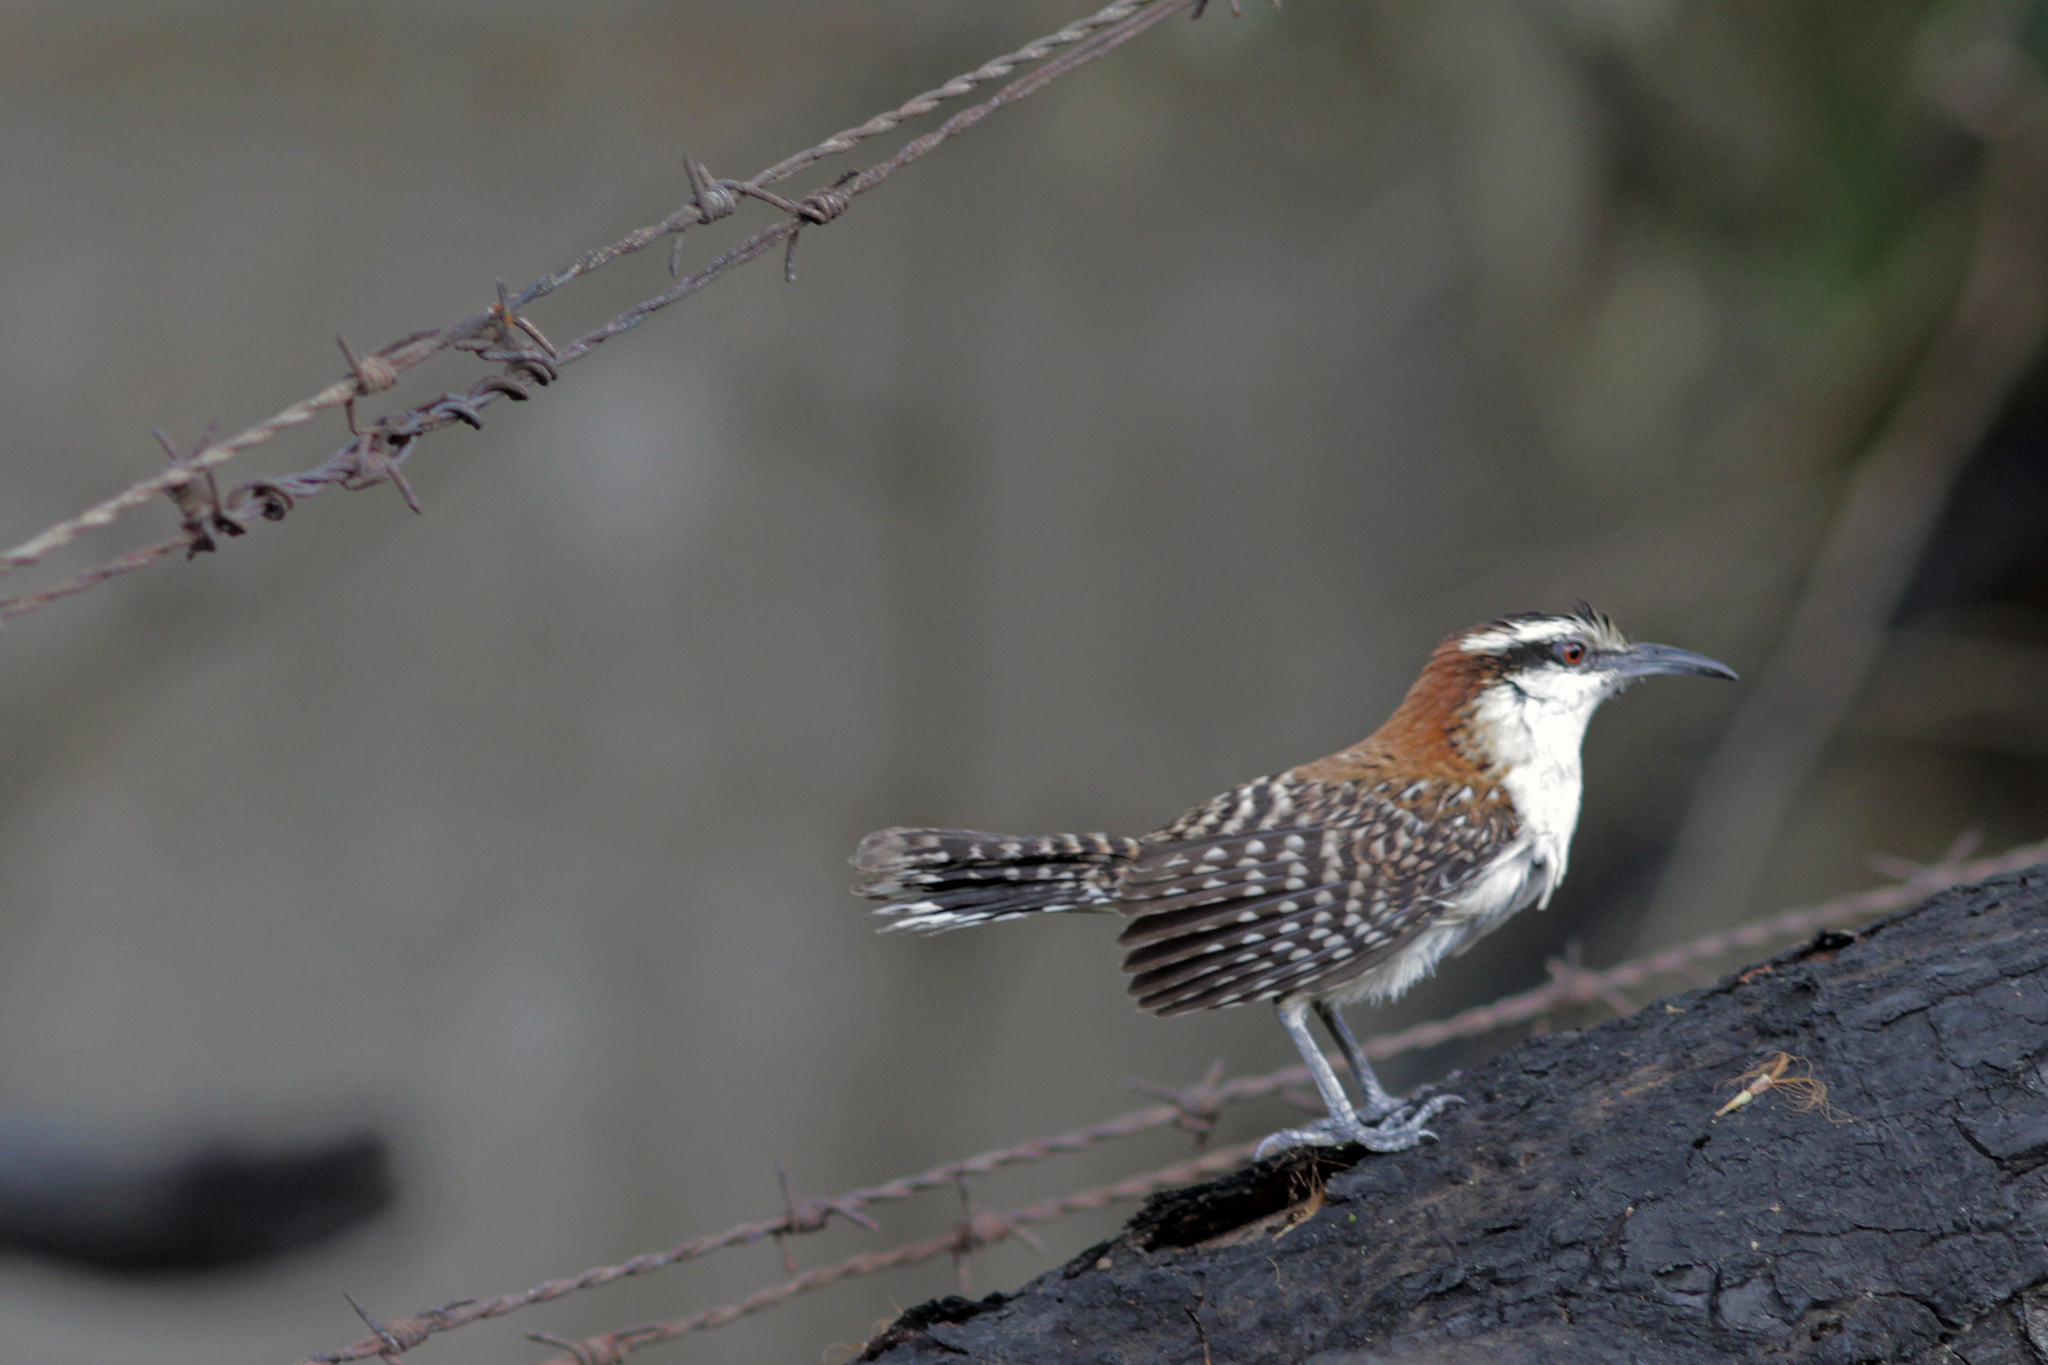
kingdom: Animalia
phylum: Chordata
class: Aves
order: Passeriformes
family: Troglodytidae
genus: Campylorhynchus
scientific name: Campylorhynchus rufinucha
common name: Rufous-naped wren
